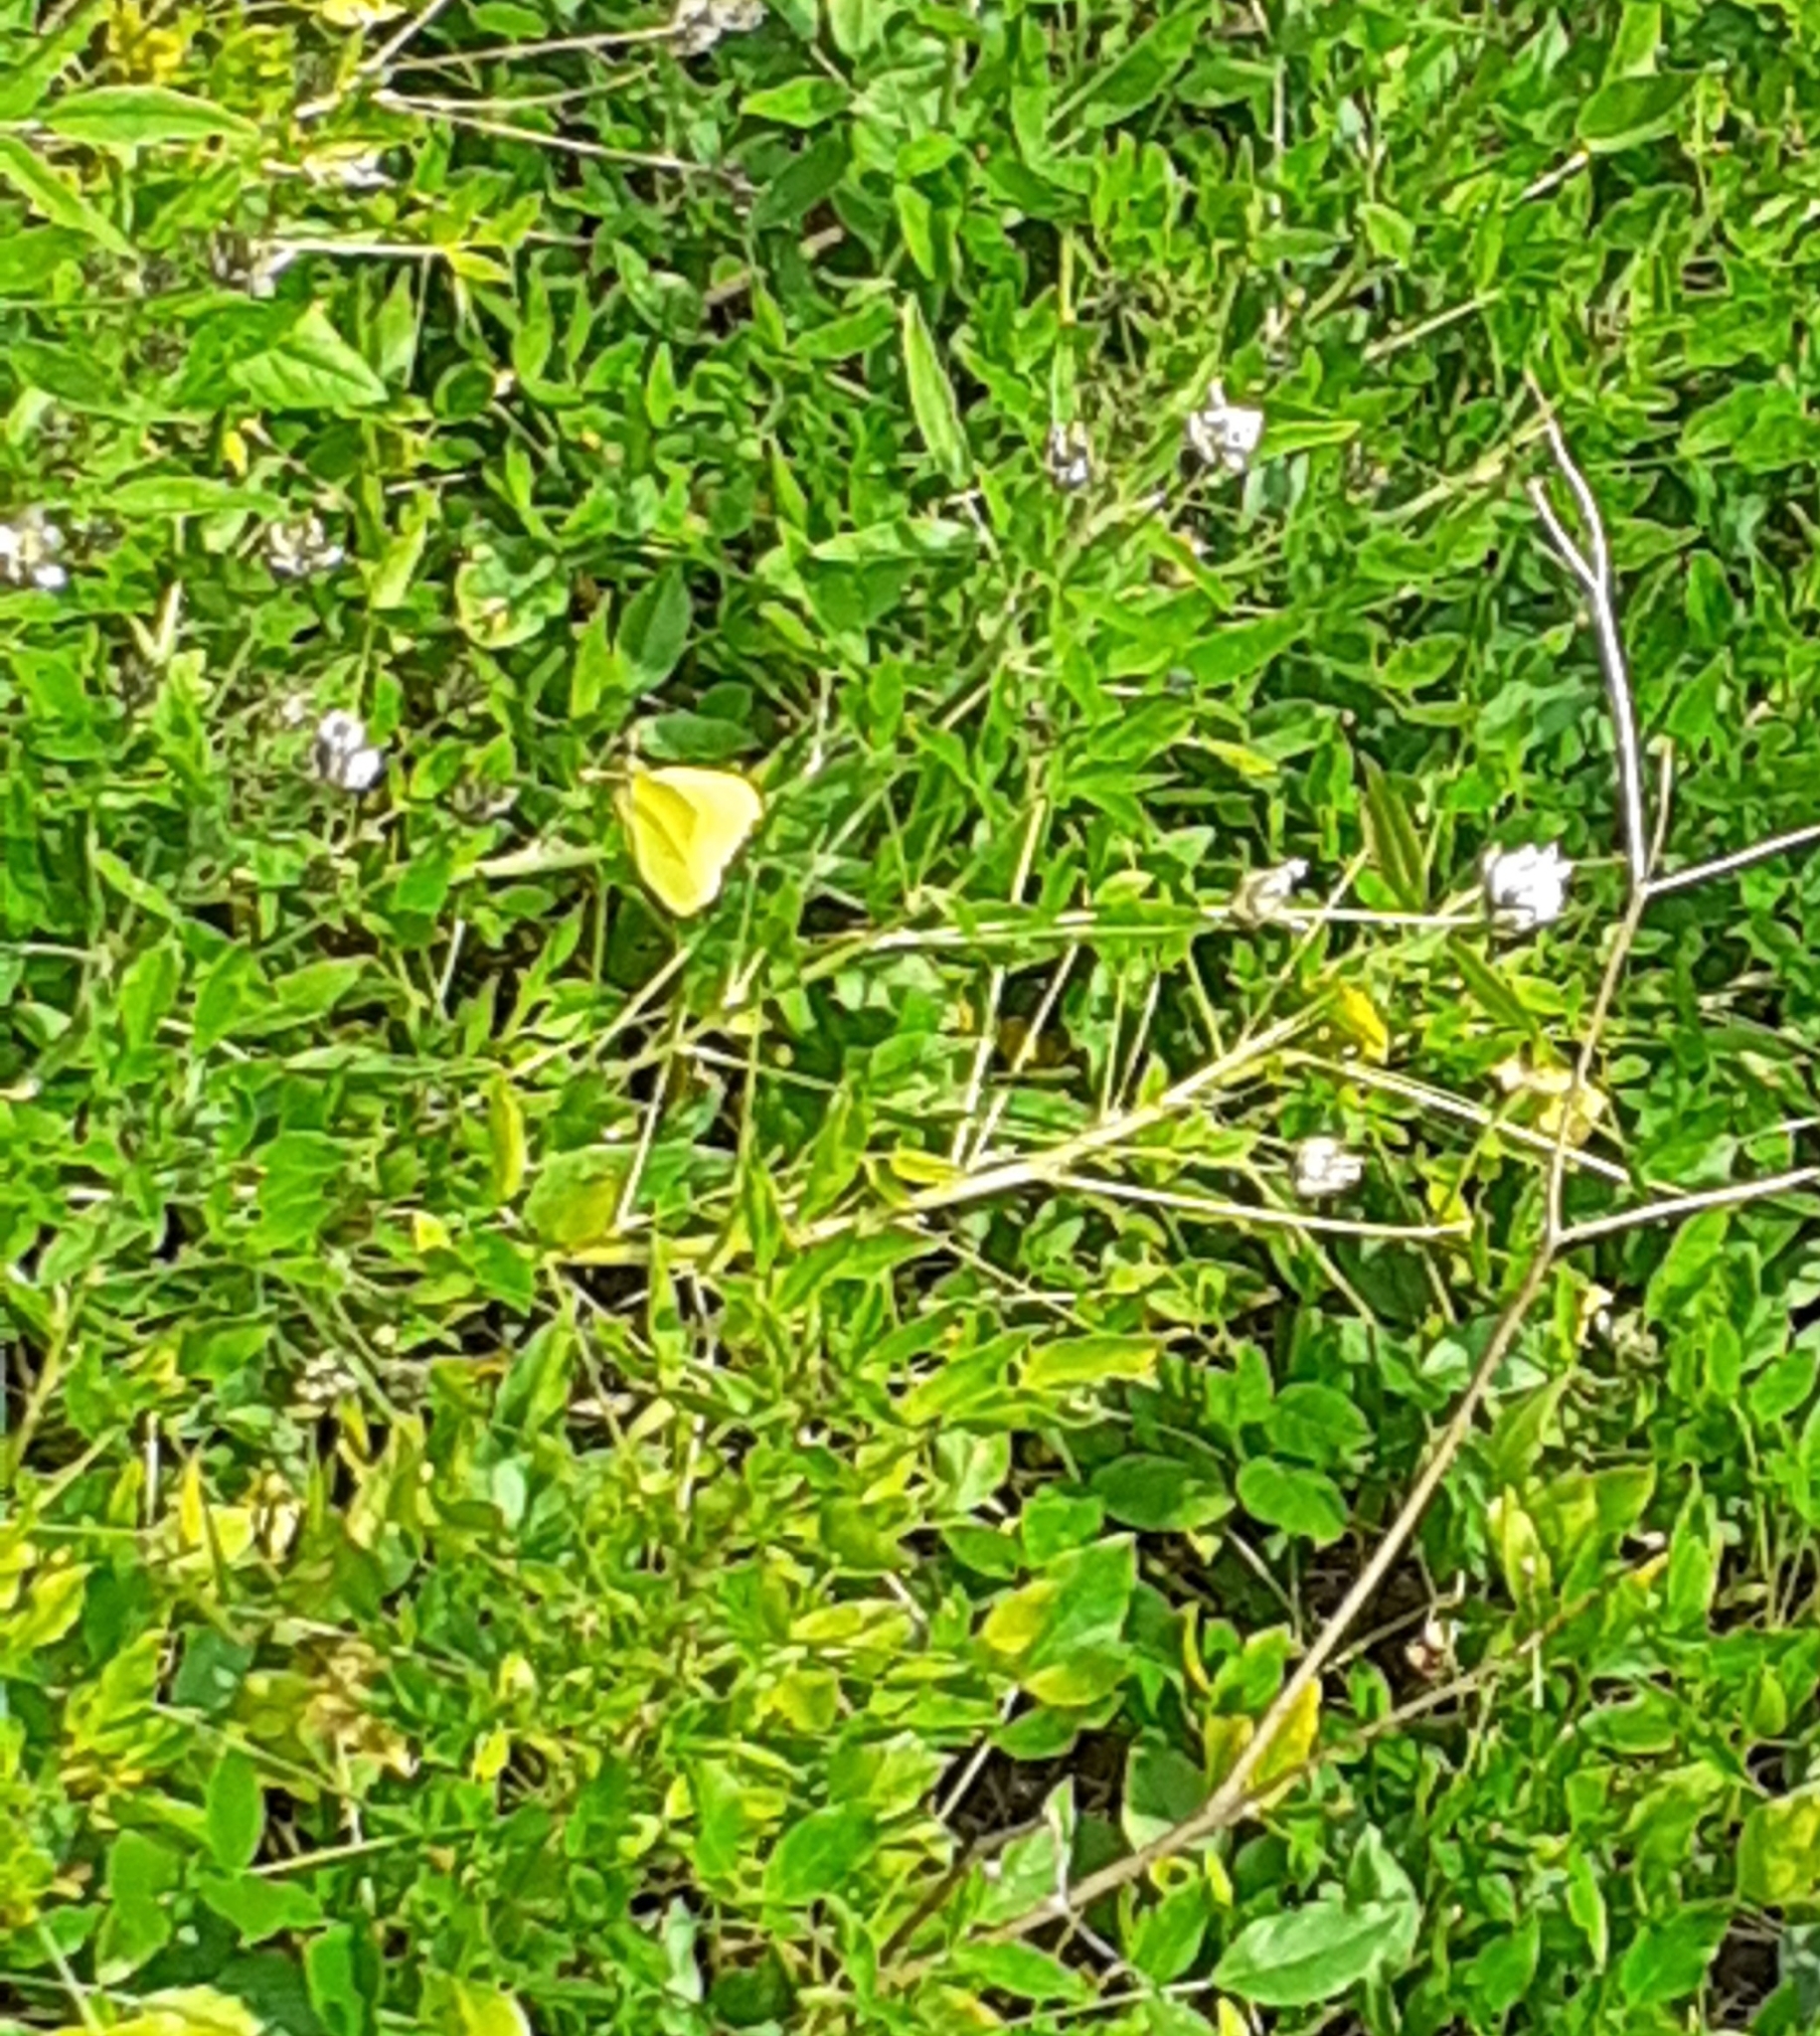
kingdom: Animalia
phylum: Arthropoda
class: Insecta
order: Lepidoptera
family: Pieridae
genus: Gonepteryx
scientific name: Gonepteryx cleobule
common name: Canary brimstone
